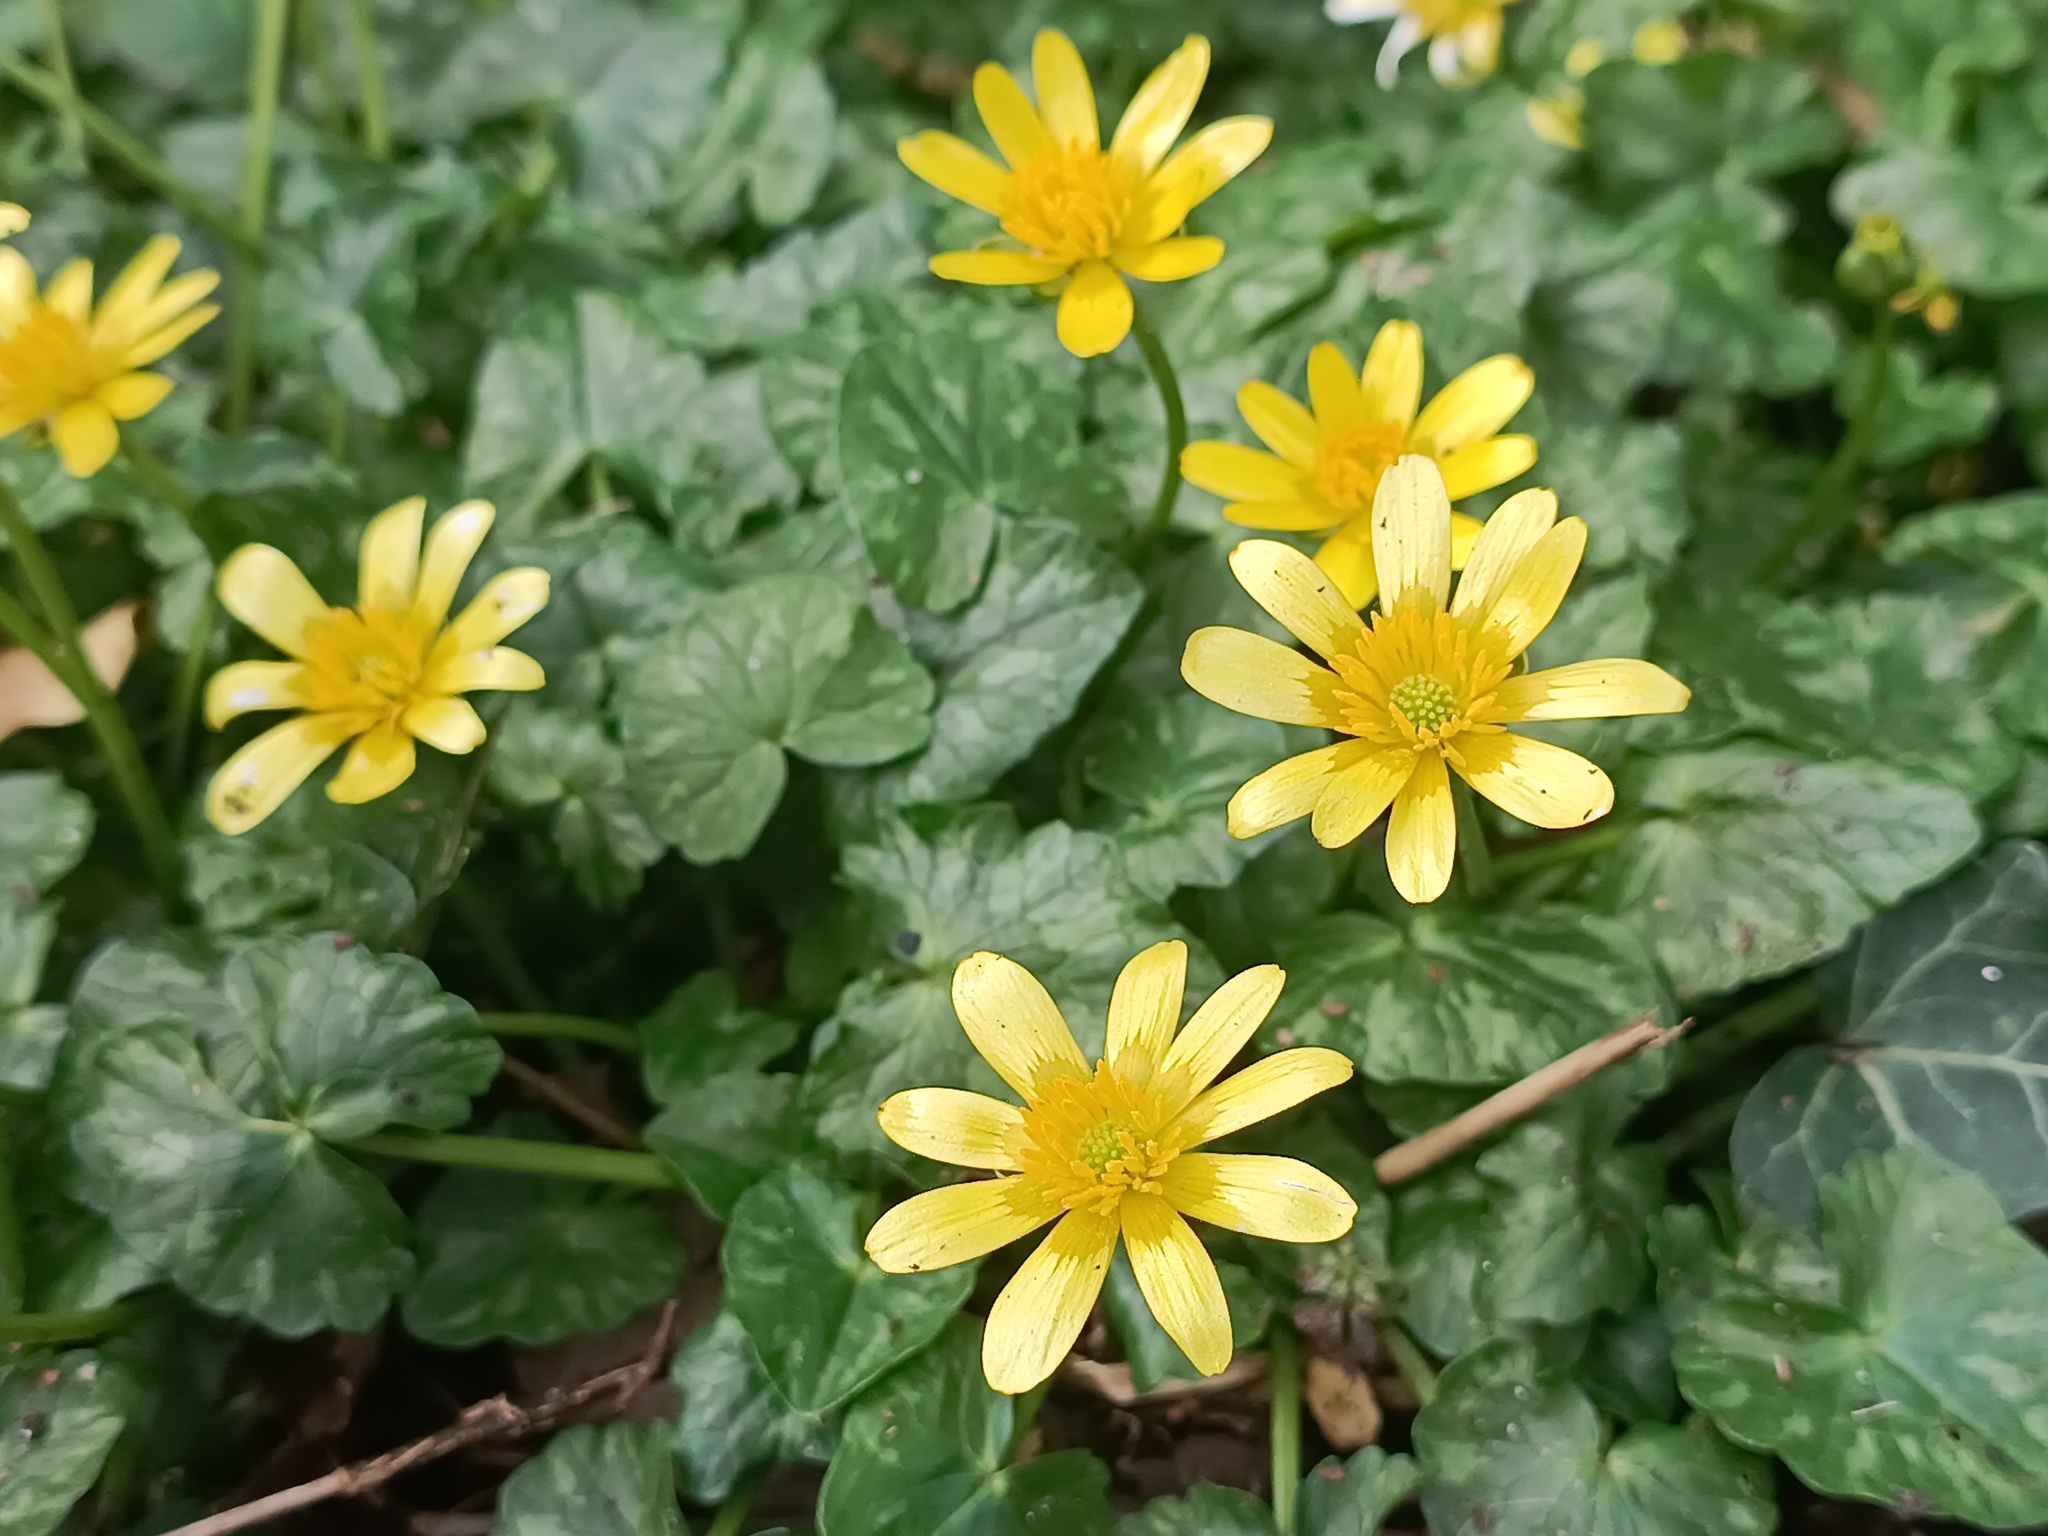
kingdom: Plantae
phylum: Tracheophyta
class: Magnoliopsida
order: Ranunculales
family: Ranunculaceae
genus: Ficaria
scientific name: Ficaria verna
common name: Lesser celandine
